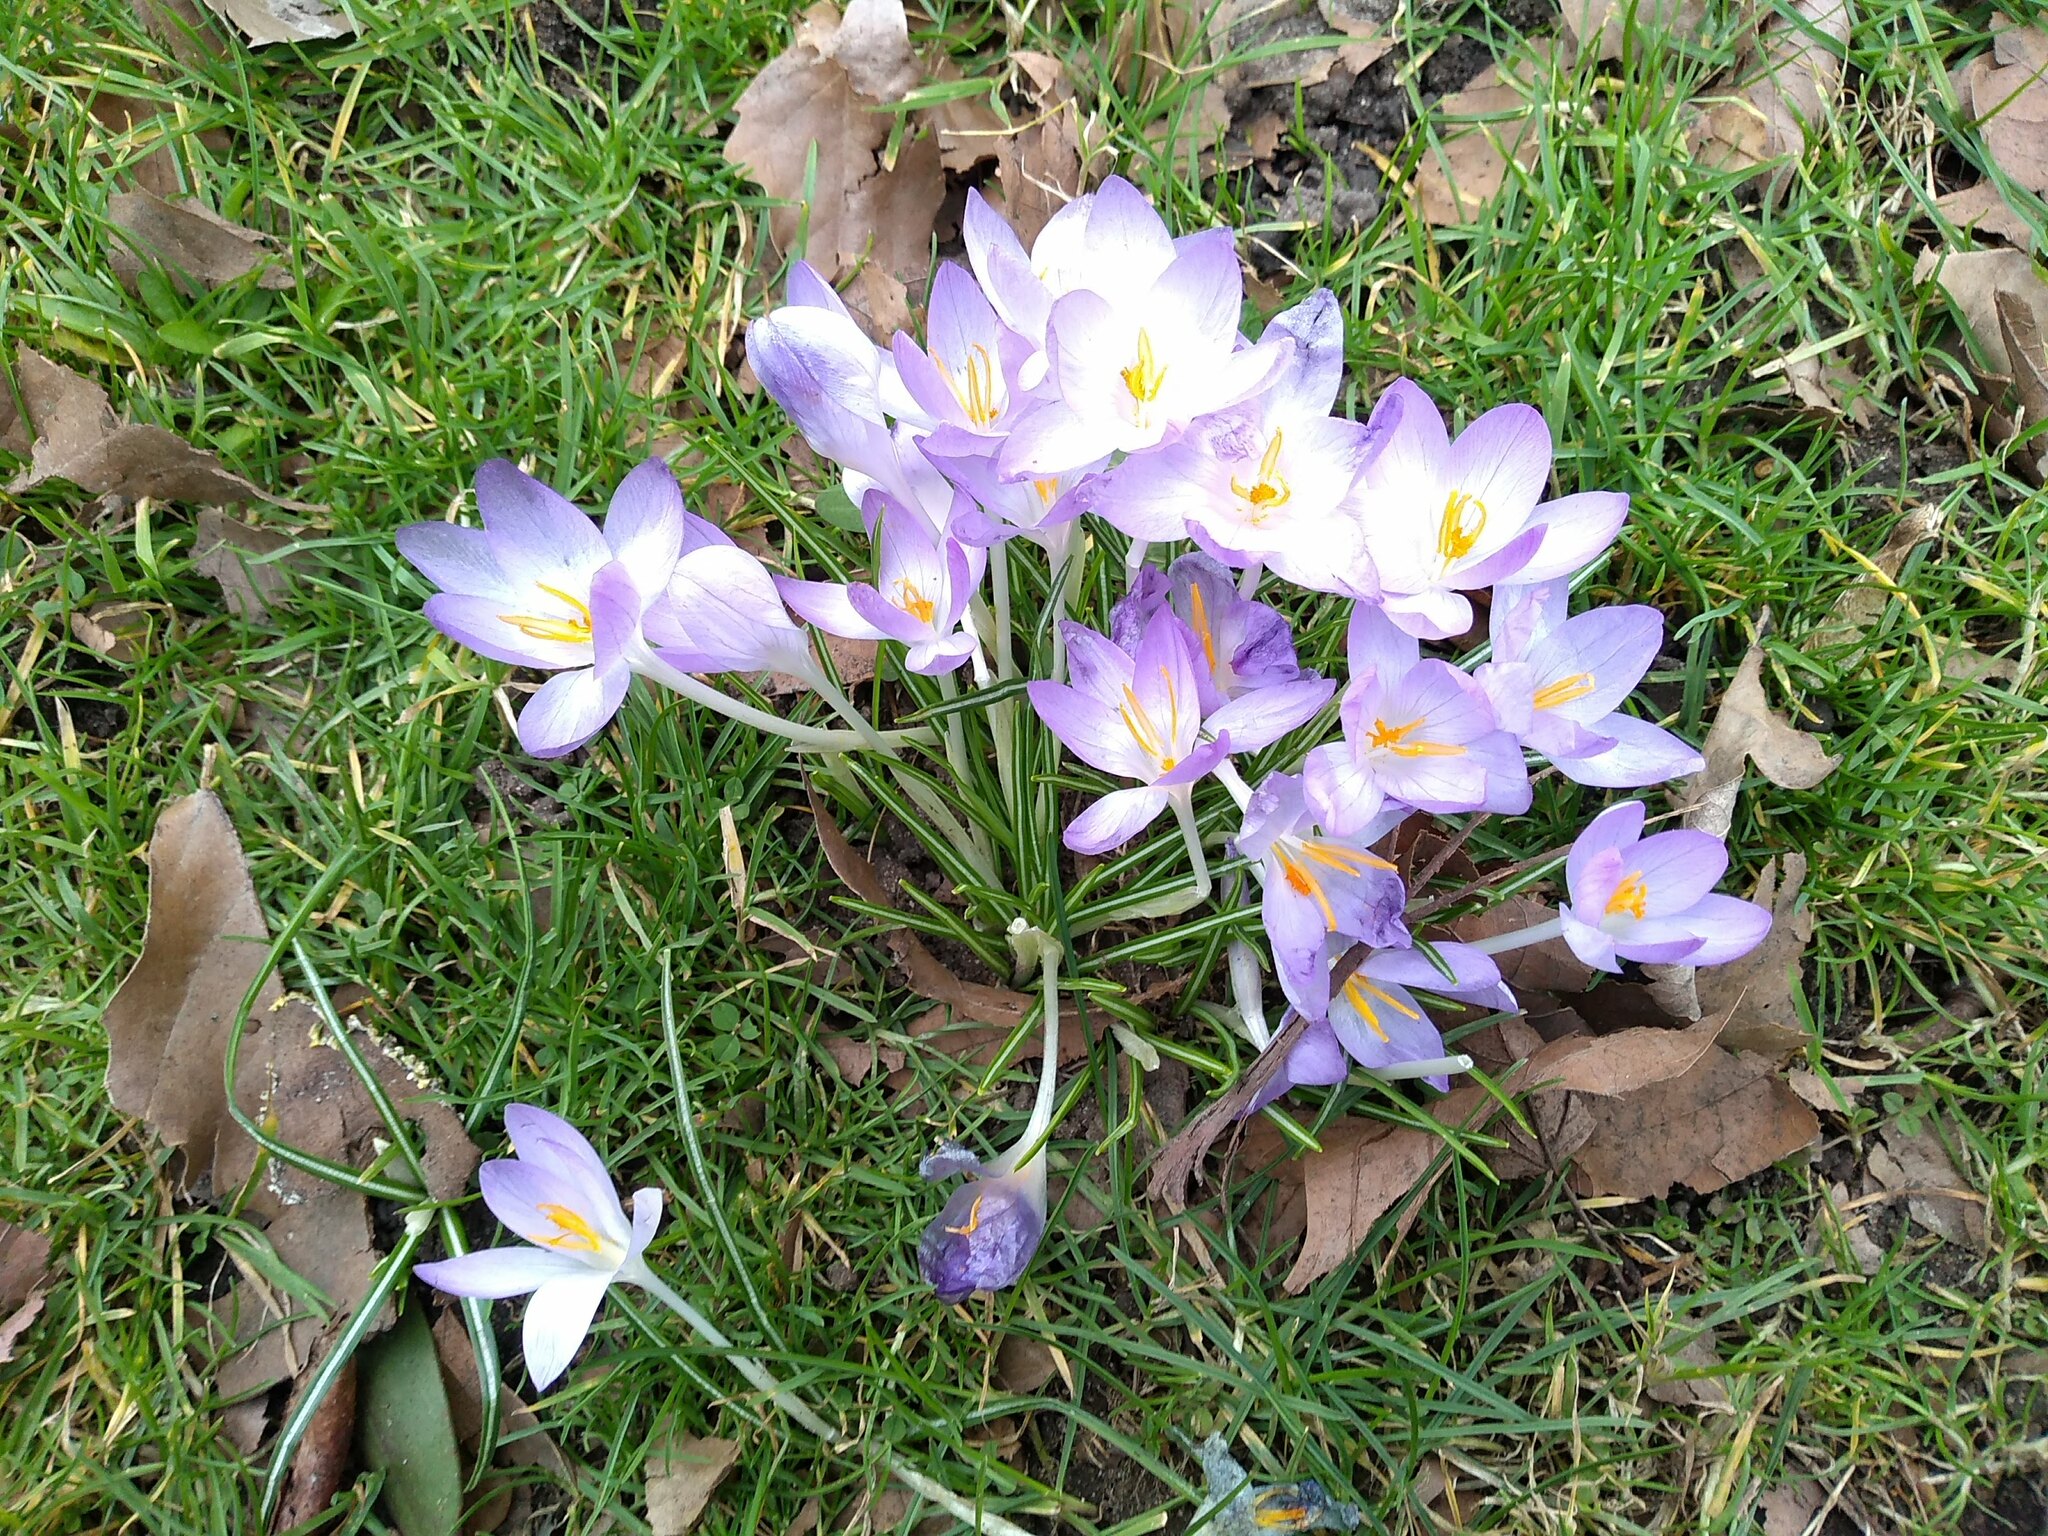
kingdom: Plantae
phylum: Tracheophyta
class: Liliopsida
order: Asparagales
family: Iridaceae
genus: Crocus
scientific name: Crocus tommasinianus
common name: Early crocus
